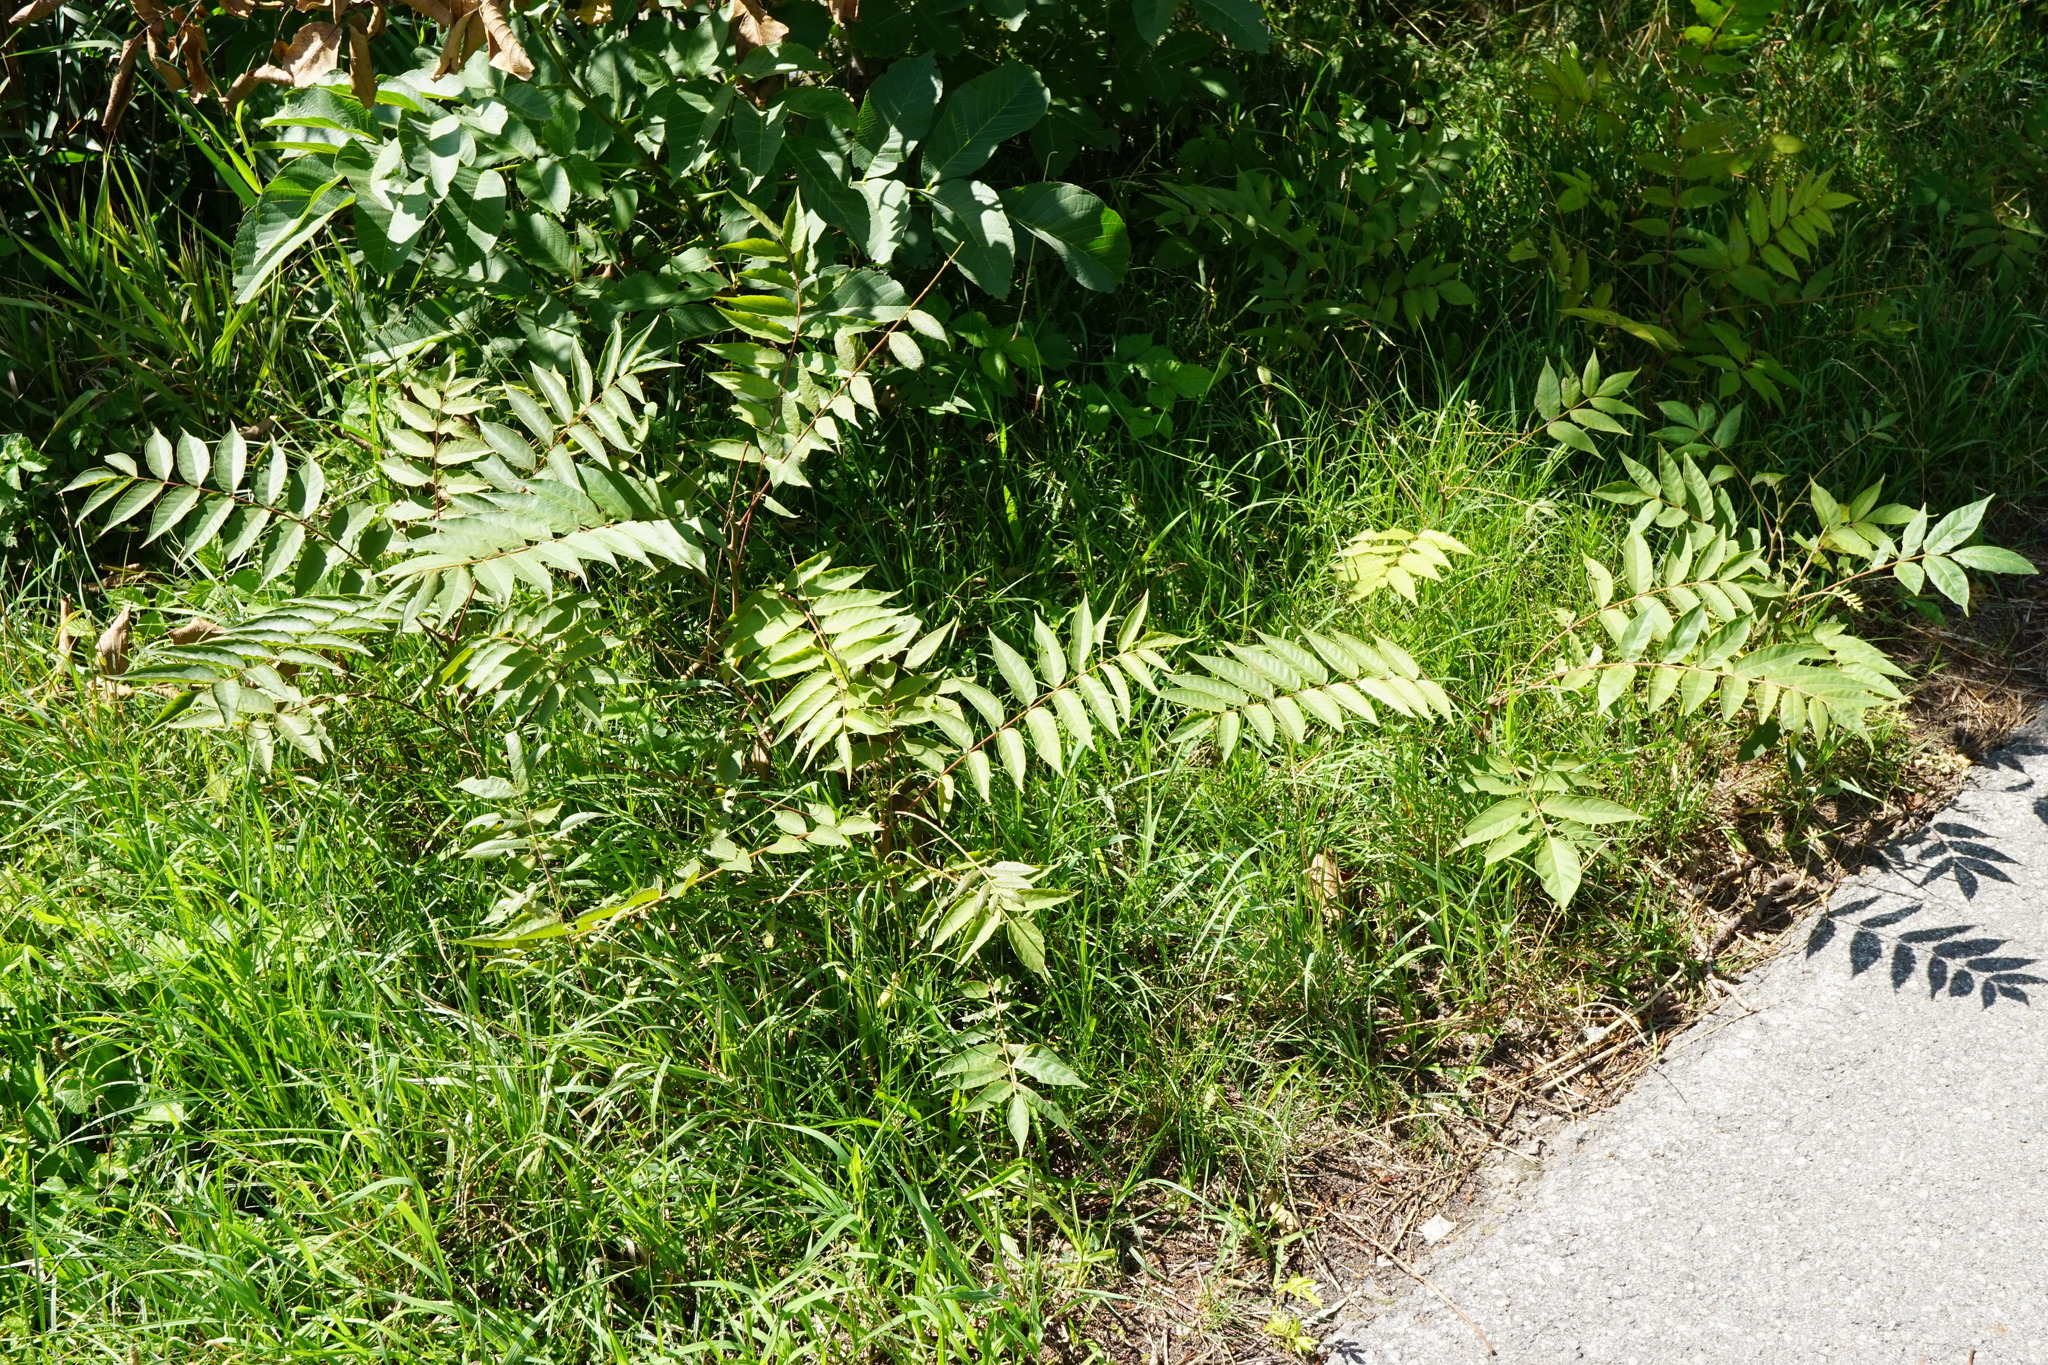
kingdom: Plantae
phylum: Tracheophyta
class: Magnoliopsida
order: Sapindales
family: Simaroubaceae
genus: Ailanthus
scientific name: Ailanthus altissima
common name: Tree-of-heaven
